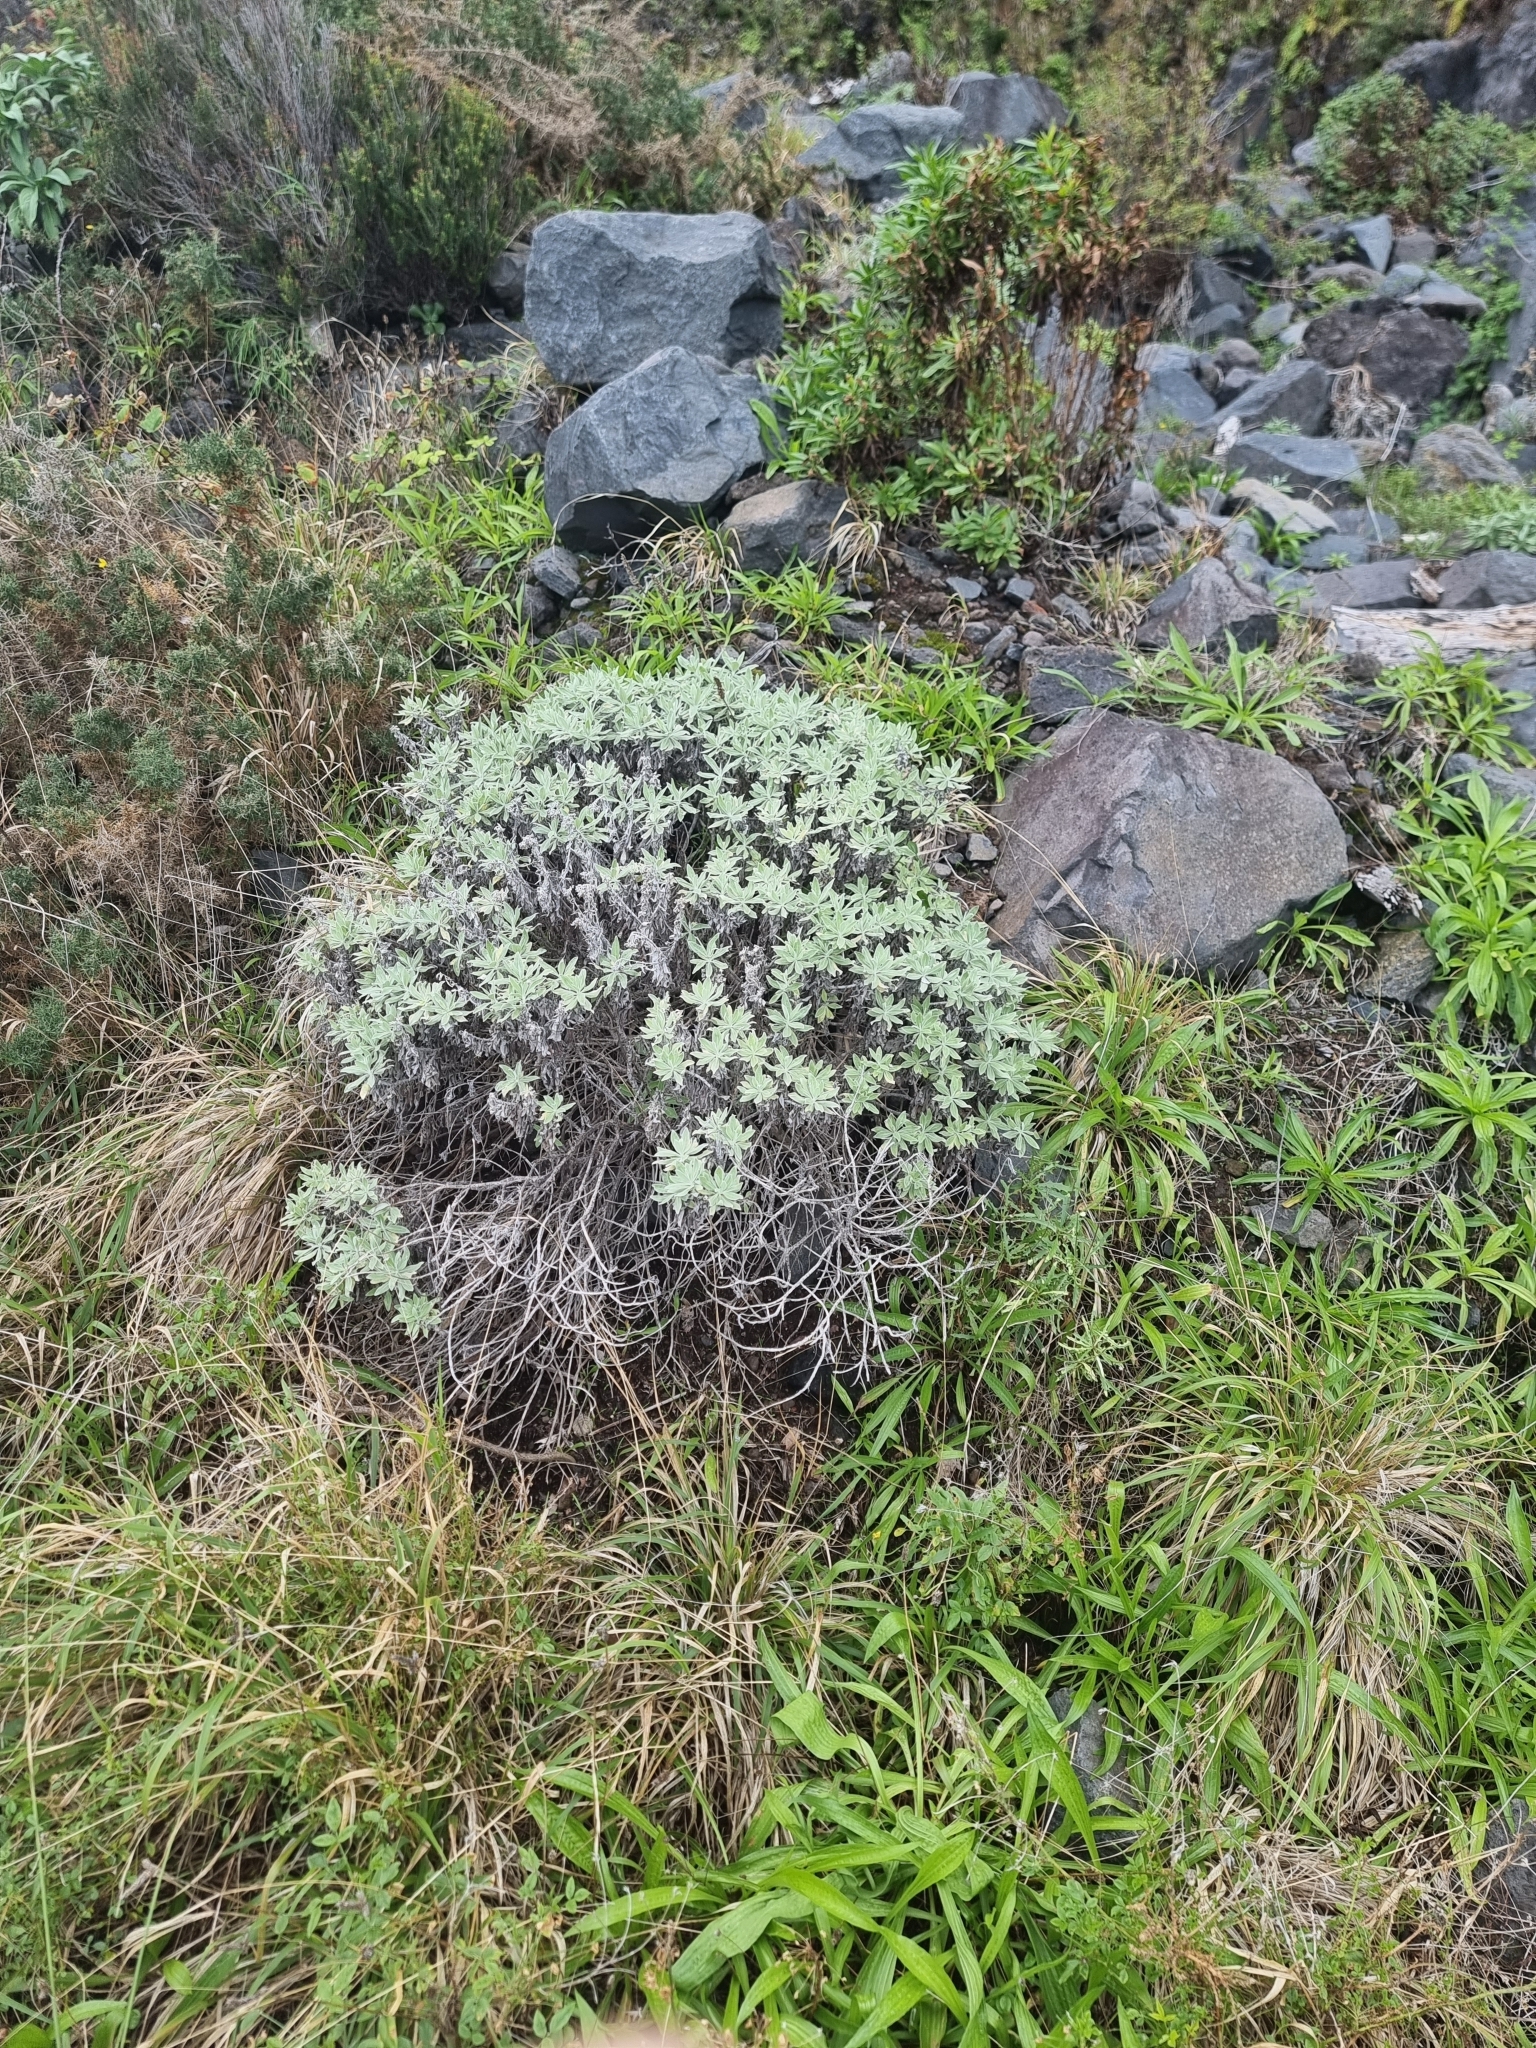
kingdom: Plantae
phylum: Tracheophyta
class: Magnoliopsida
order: Asterales
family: Asteraceae
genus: Helichrysum
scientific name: Helichrysum melaleucum
